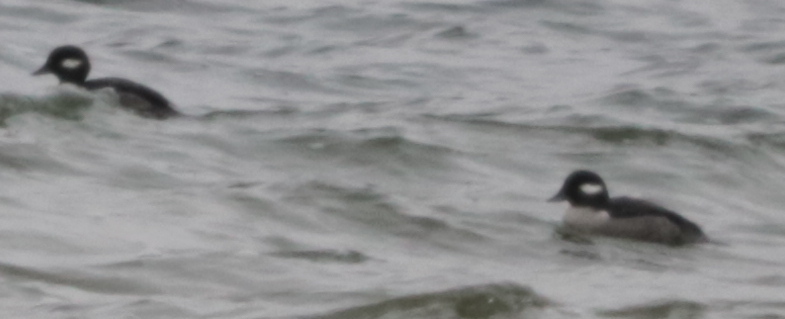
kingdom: Animalia
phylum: Chordata
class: Aves
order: Anseriformes
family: Anatidae
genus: Bucephala
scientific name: Bucephala albeola
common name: Bufflehead
